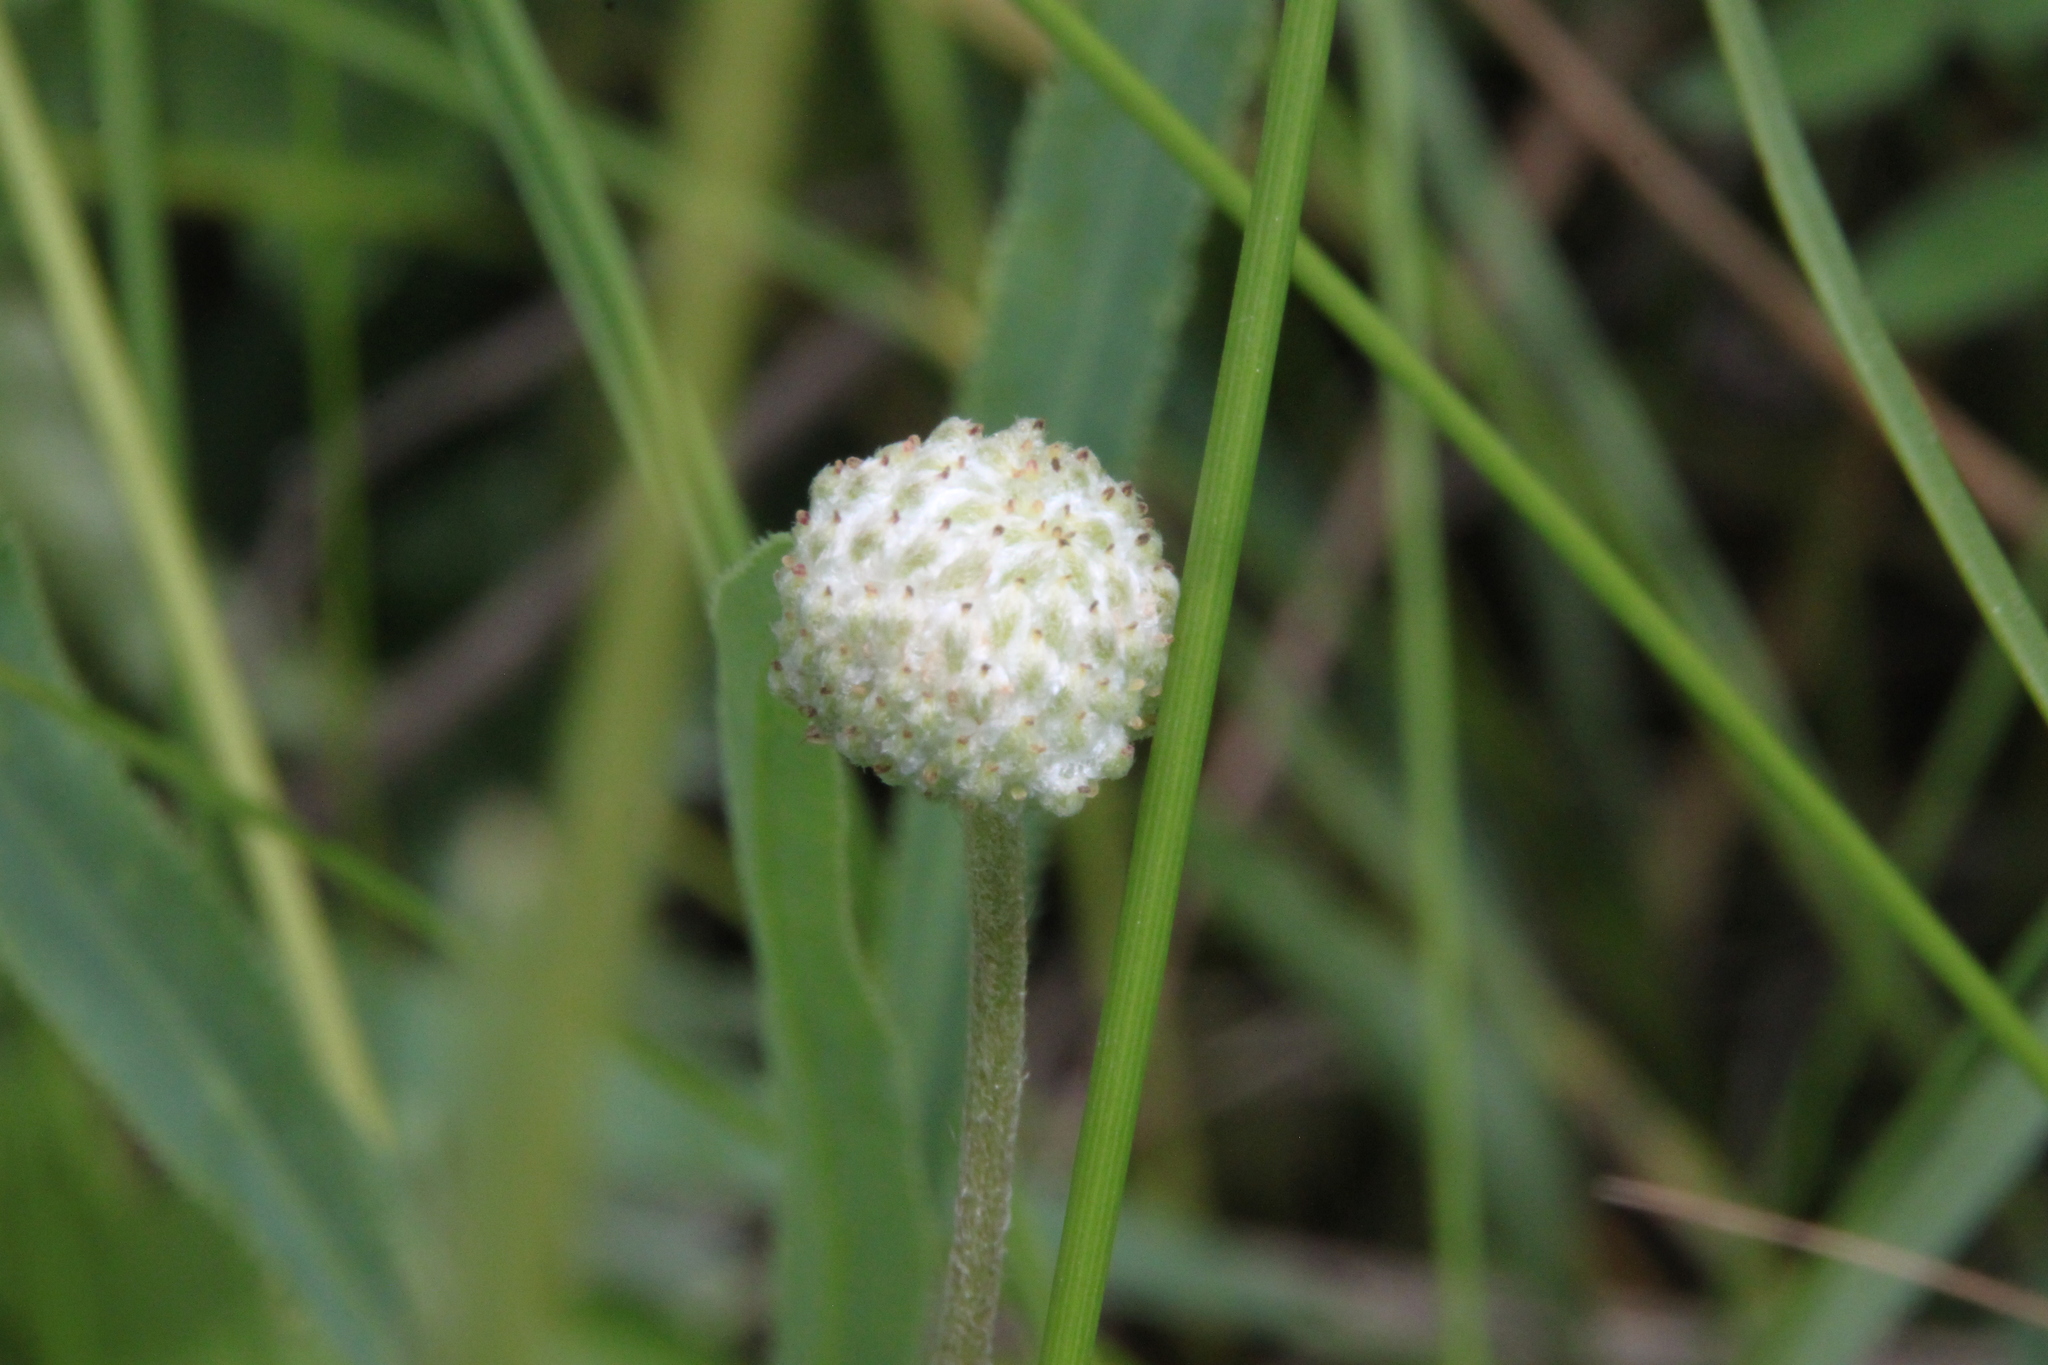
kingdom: Plantae
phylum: Tracheophyta
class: Magnoliopsida
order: Ranunculales
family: Ranunculaceae
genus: Anemone
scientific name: Anemone sylvestris
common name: Snowdrop anemone
